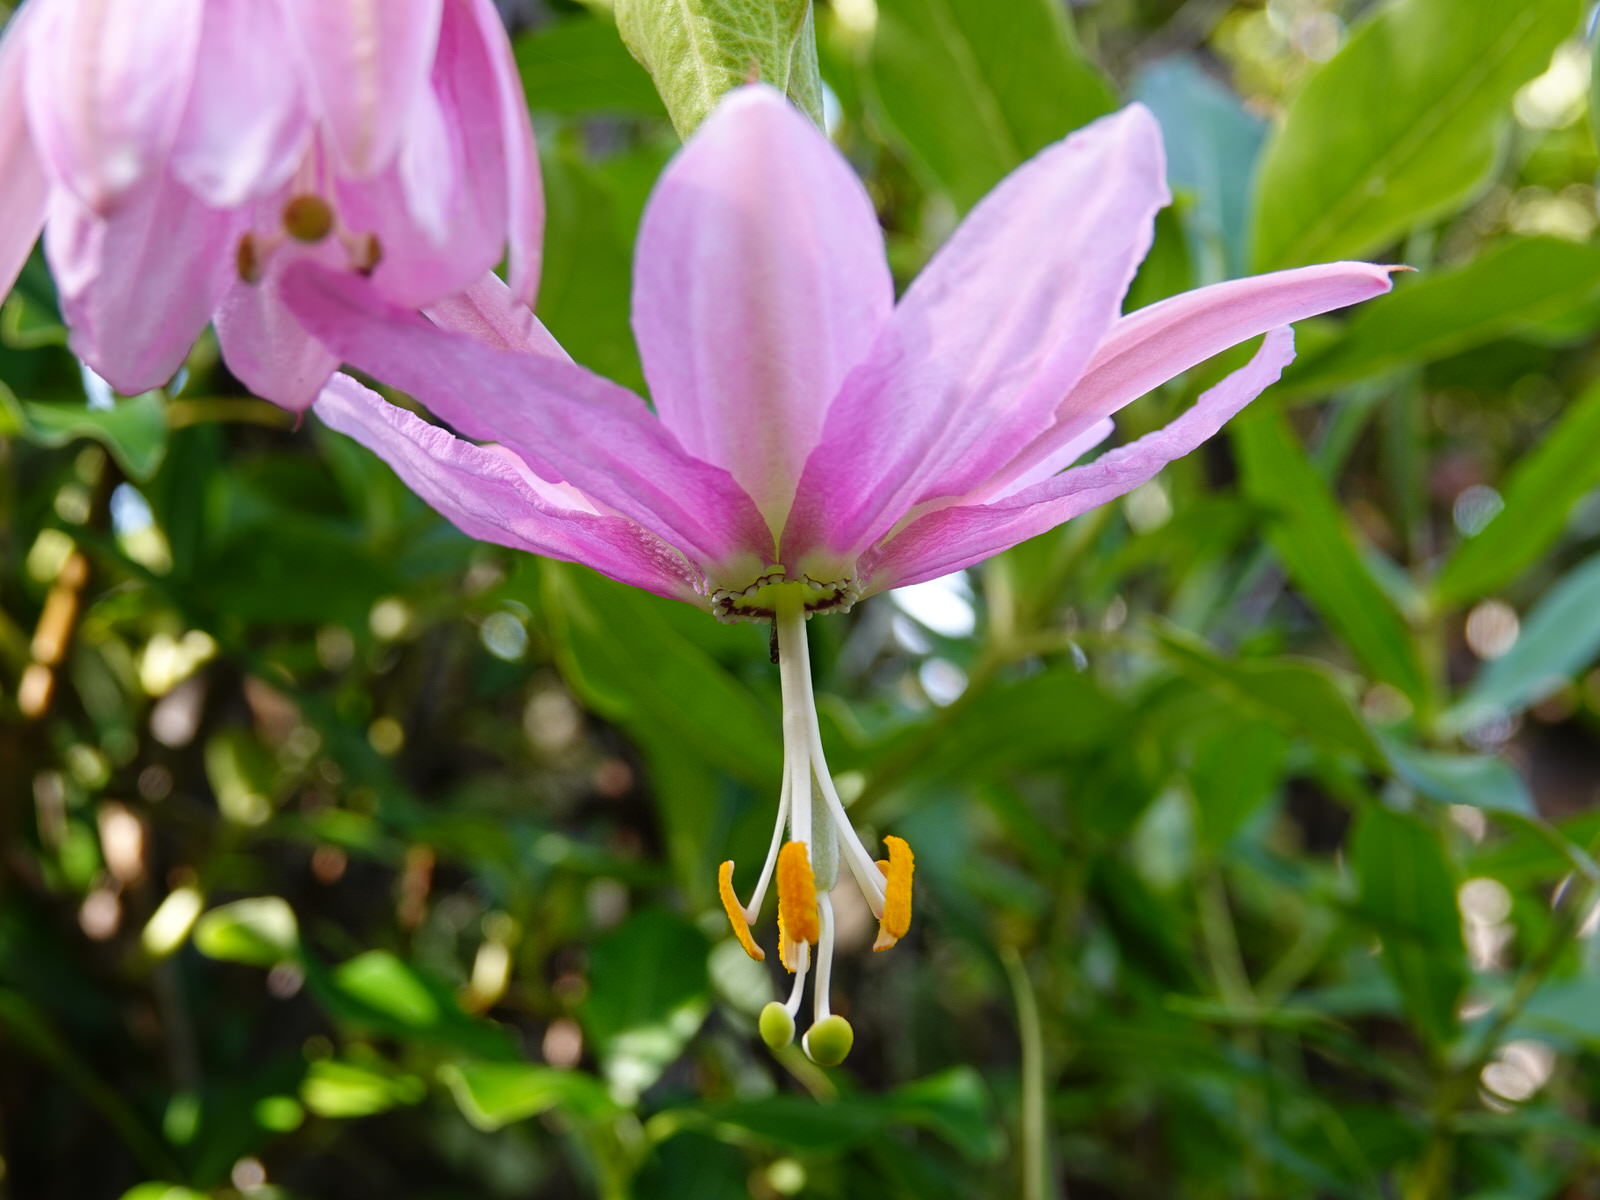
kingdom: Plantae
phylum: Tracheophyta
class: Magnoliopsida
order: Malpighiales
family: Passifloraceae
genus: Passiflora
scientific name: Passiflora tarminiana
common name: Banana poka
